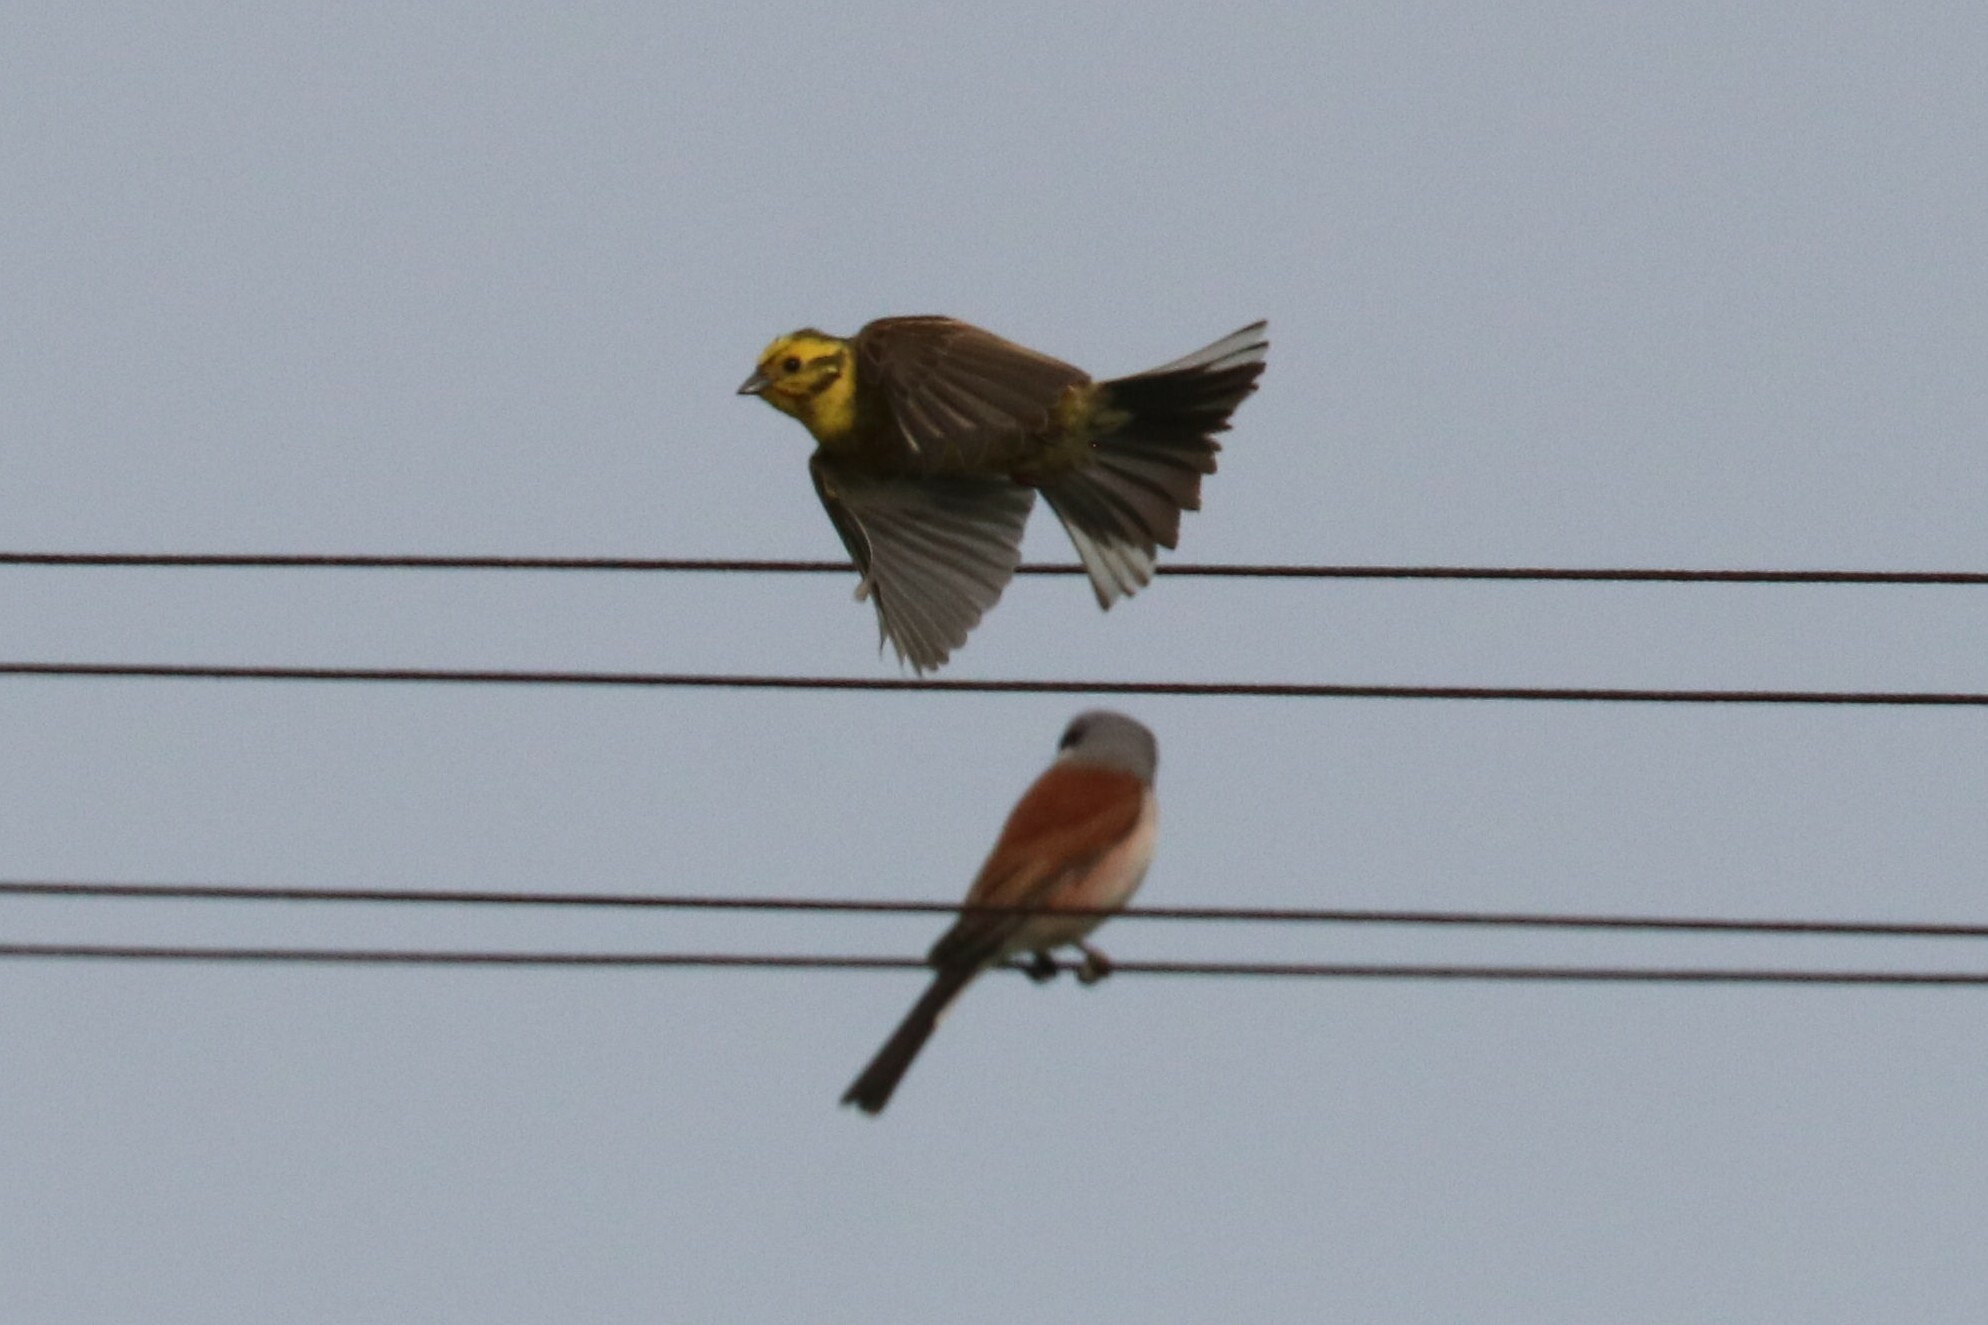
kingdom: Animalia
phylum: Chordata
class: Aves
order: Passeriformes
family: Emberizidae
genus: Emberiza
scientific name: Emberiza citrinella
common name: Yellowhammer
